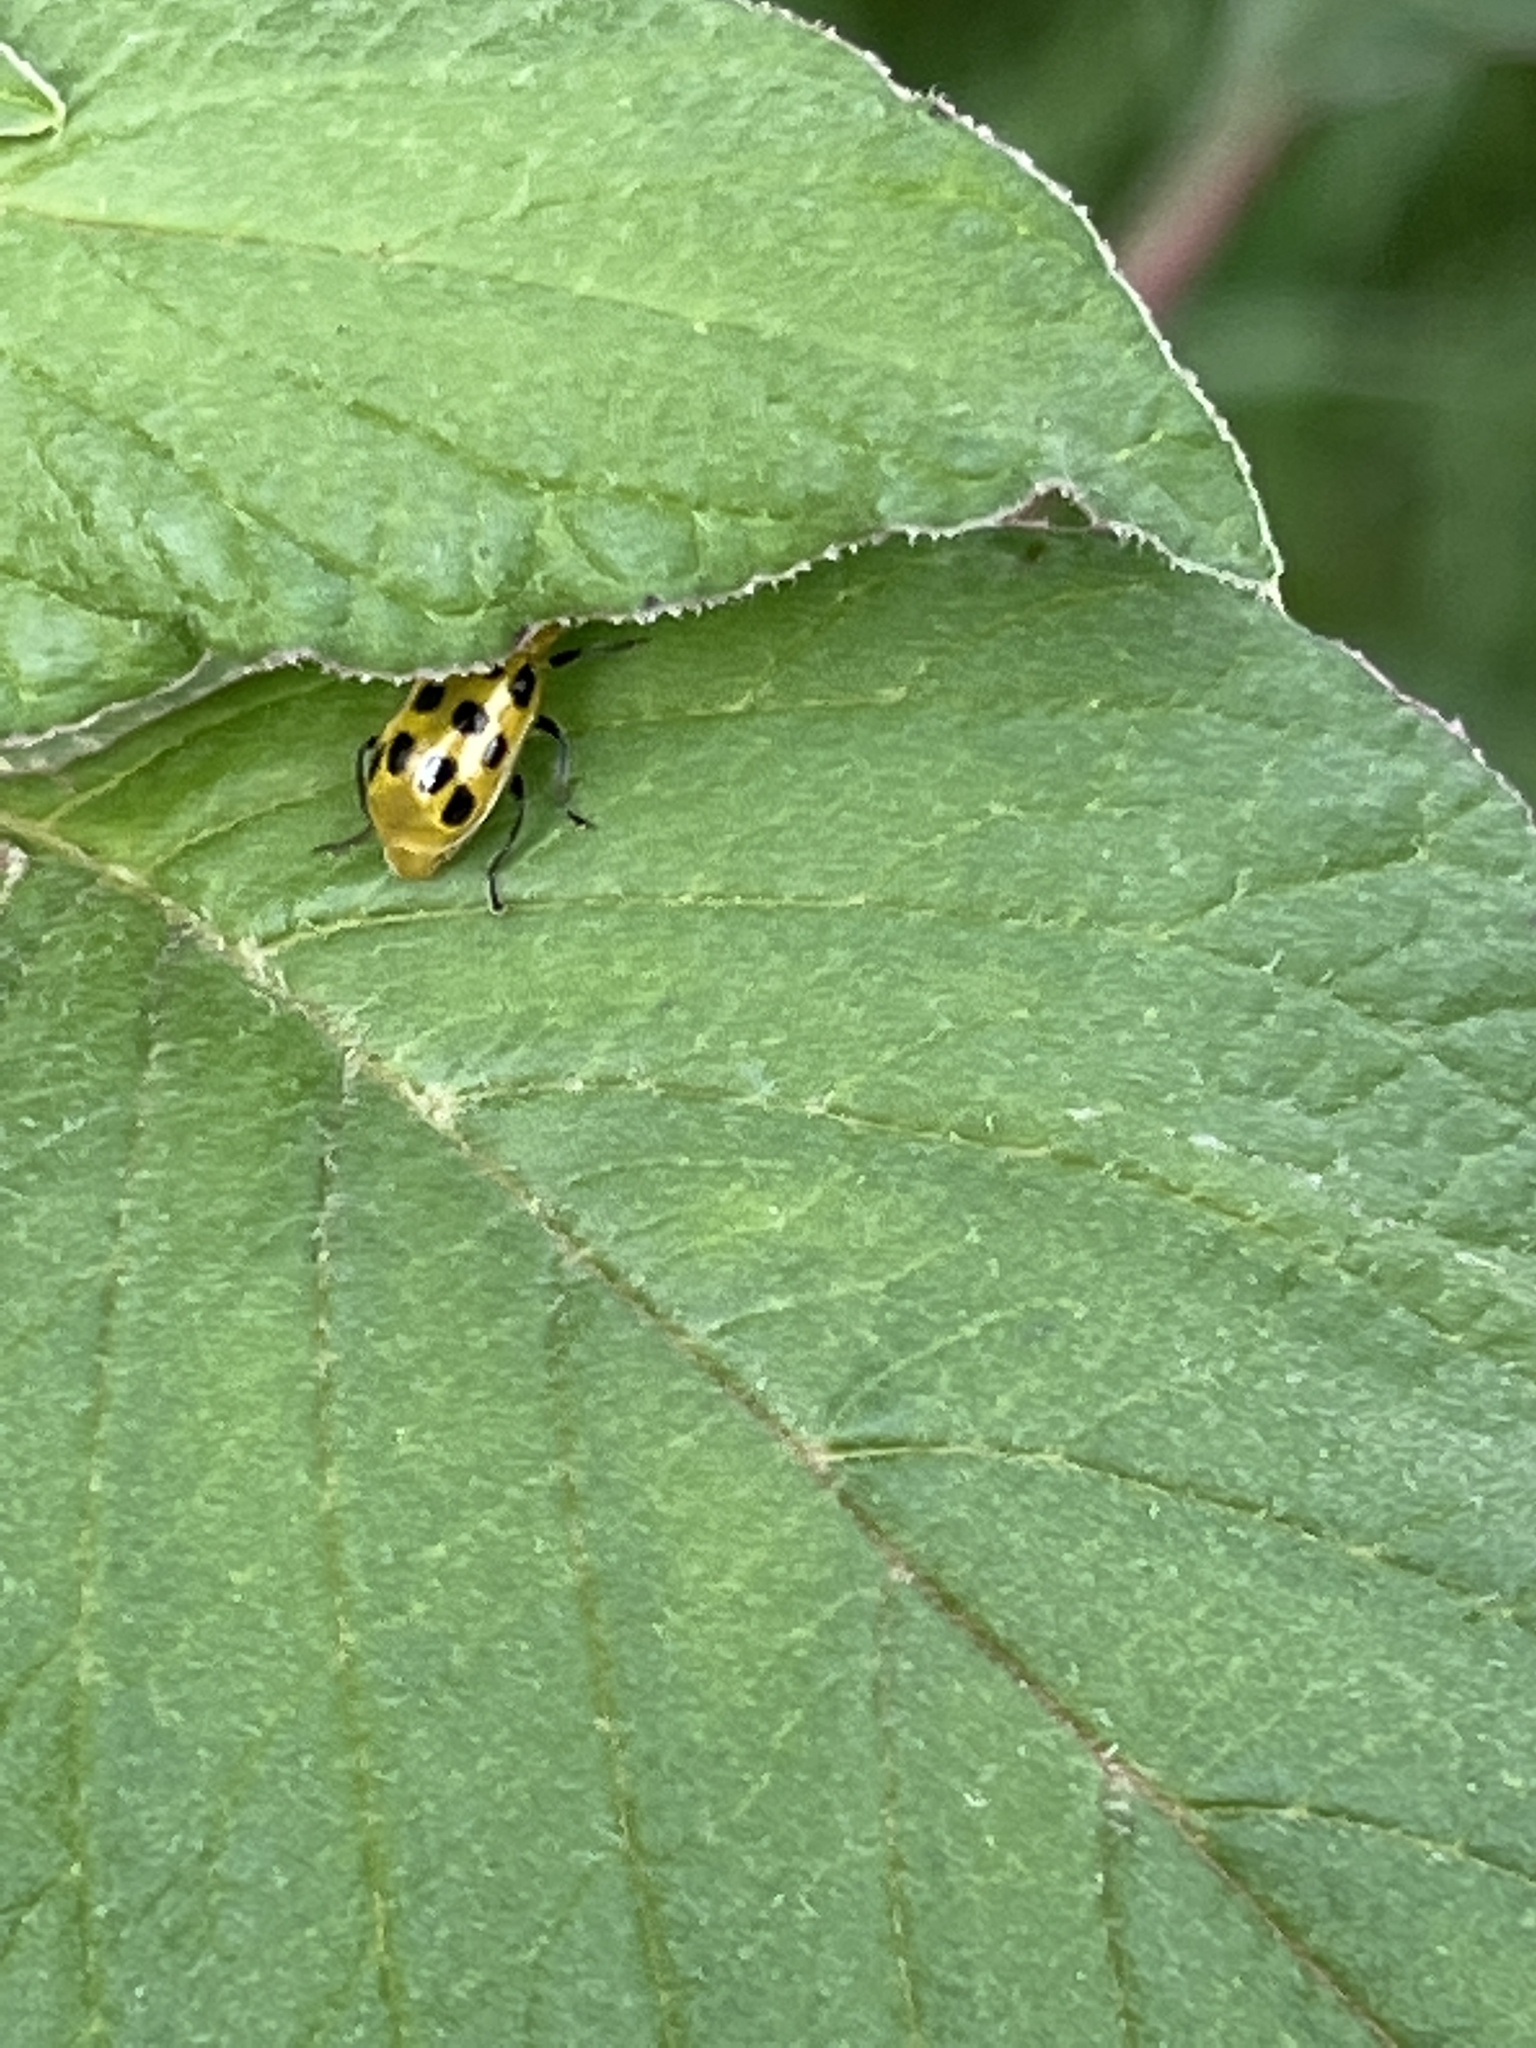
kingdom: Animalia
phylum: Arthropoda
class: Insecta
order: Coleoptera
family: Chrysomelidae
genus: Diabrotica
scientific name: Diabrotica undecimpunctata
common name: Spotted cucumber beetle
